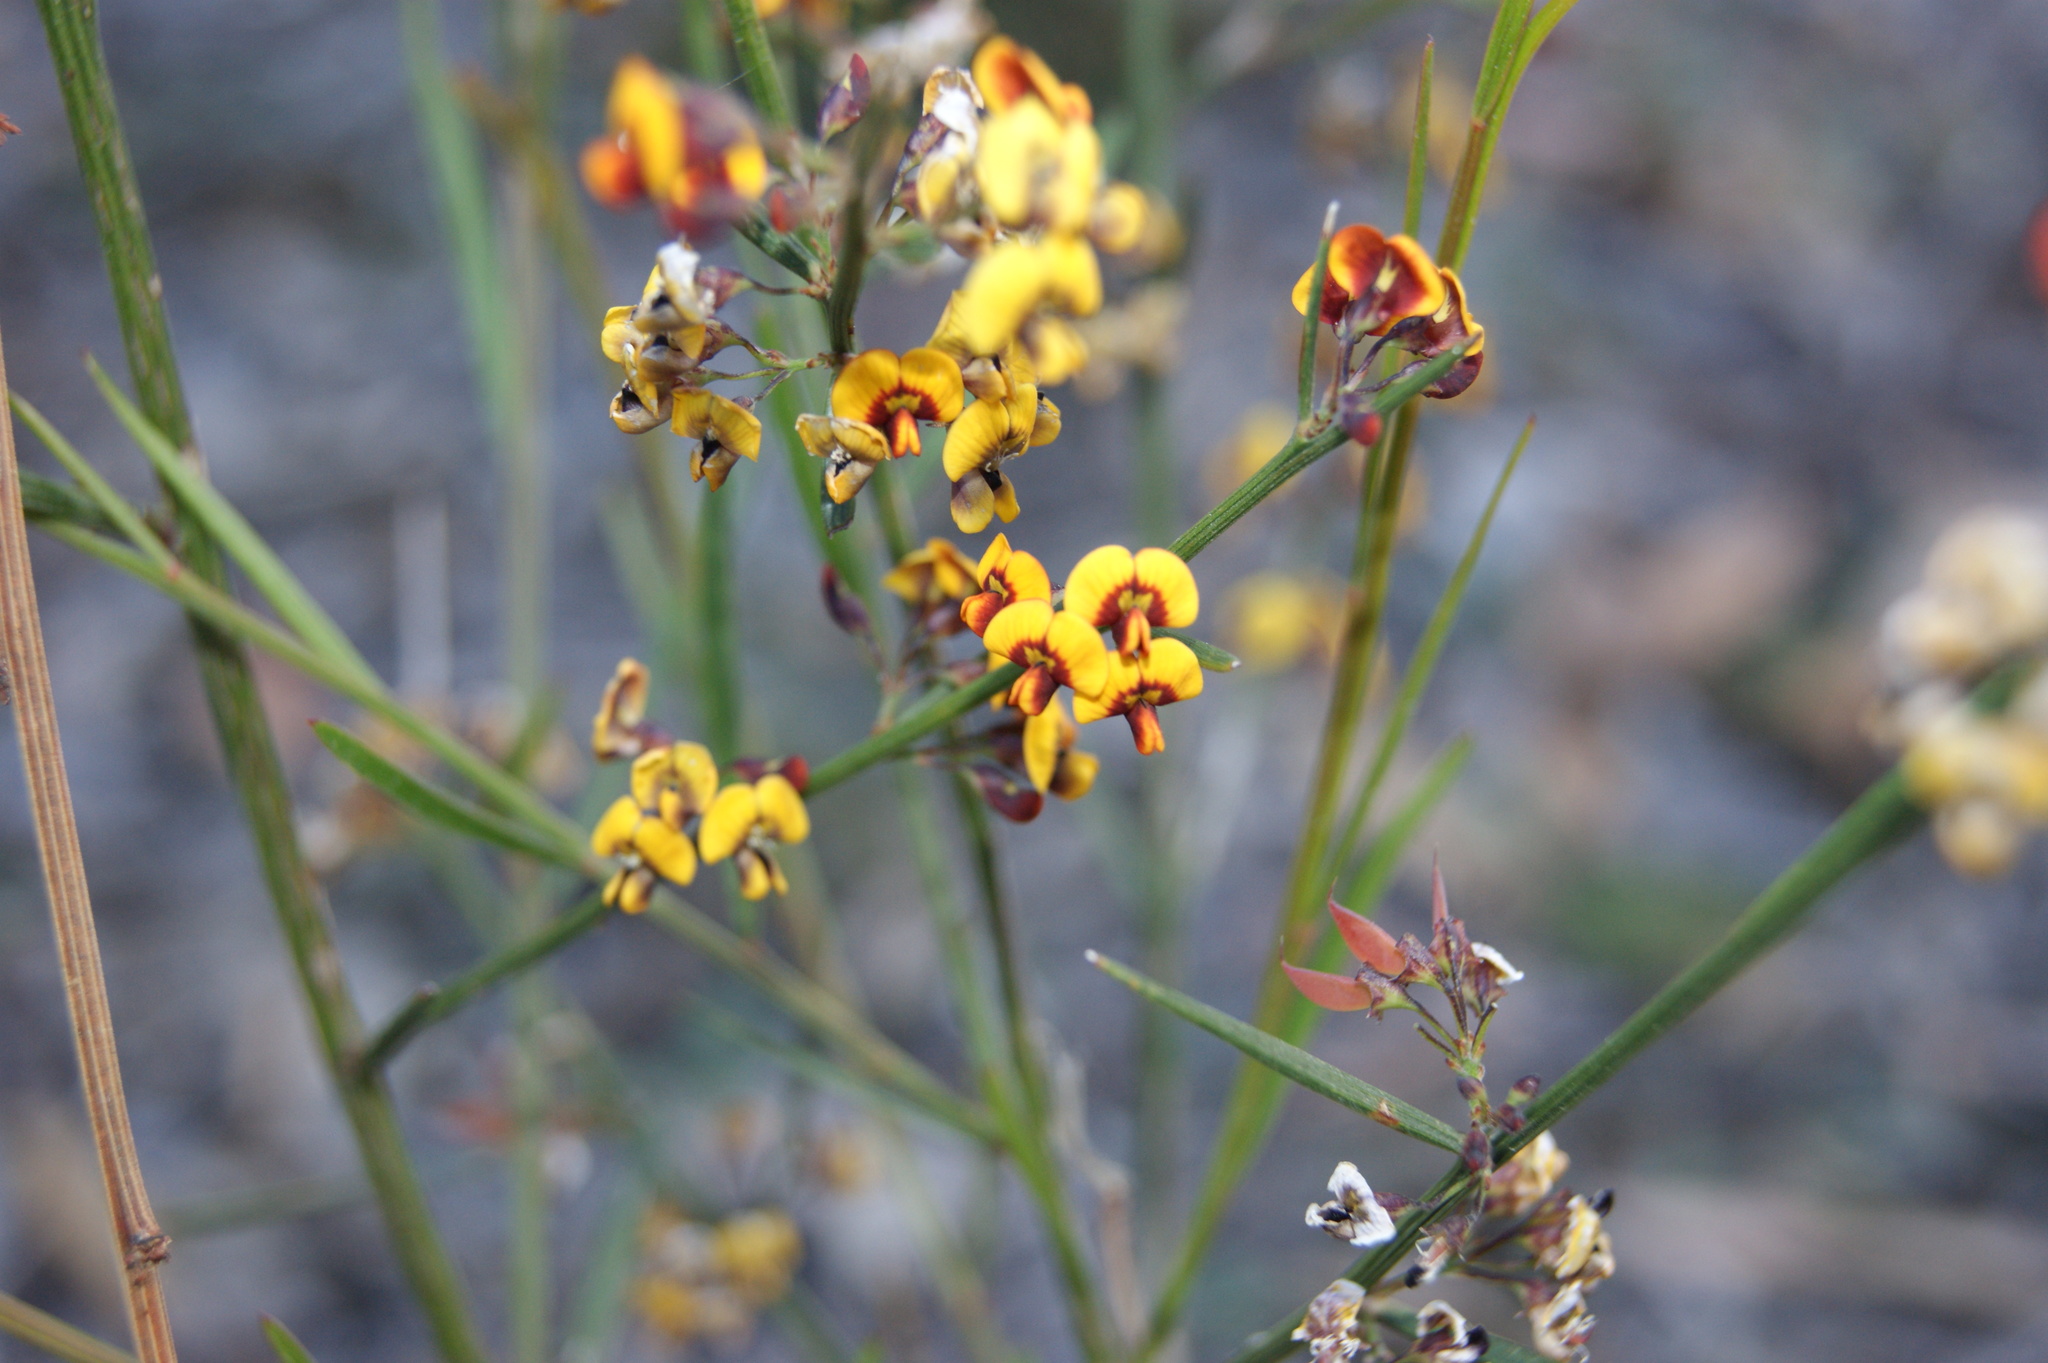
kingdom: Plantae
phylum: Tracheophyta
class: Magnoliopsida
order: Fabales
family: Fabaceae
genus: Daviesia
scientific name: Daviesia leptophylla
